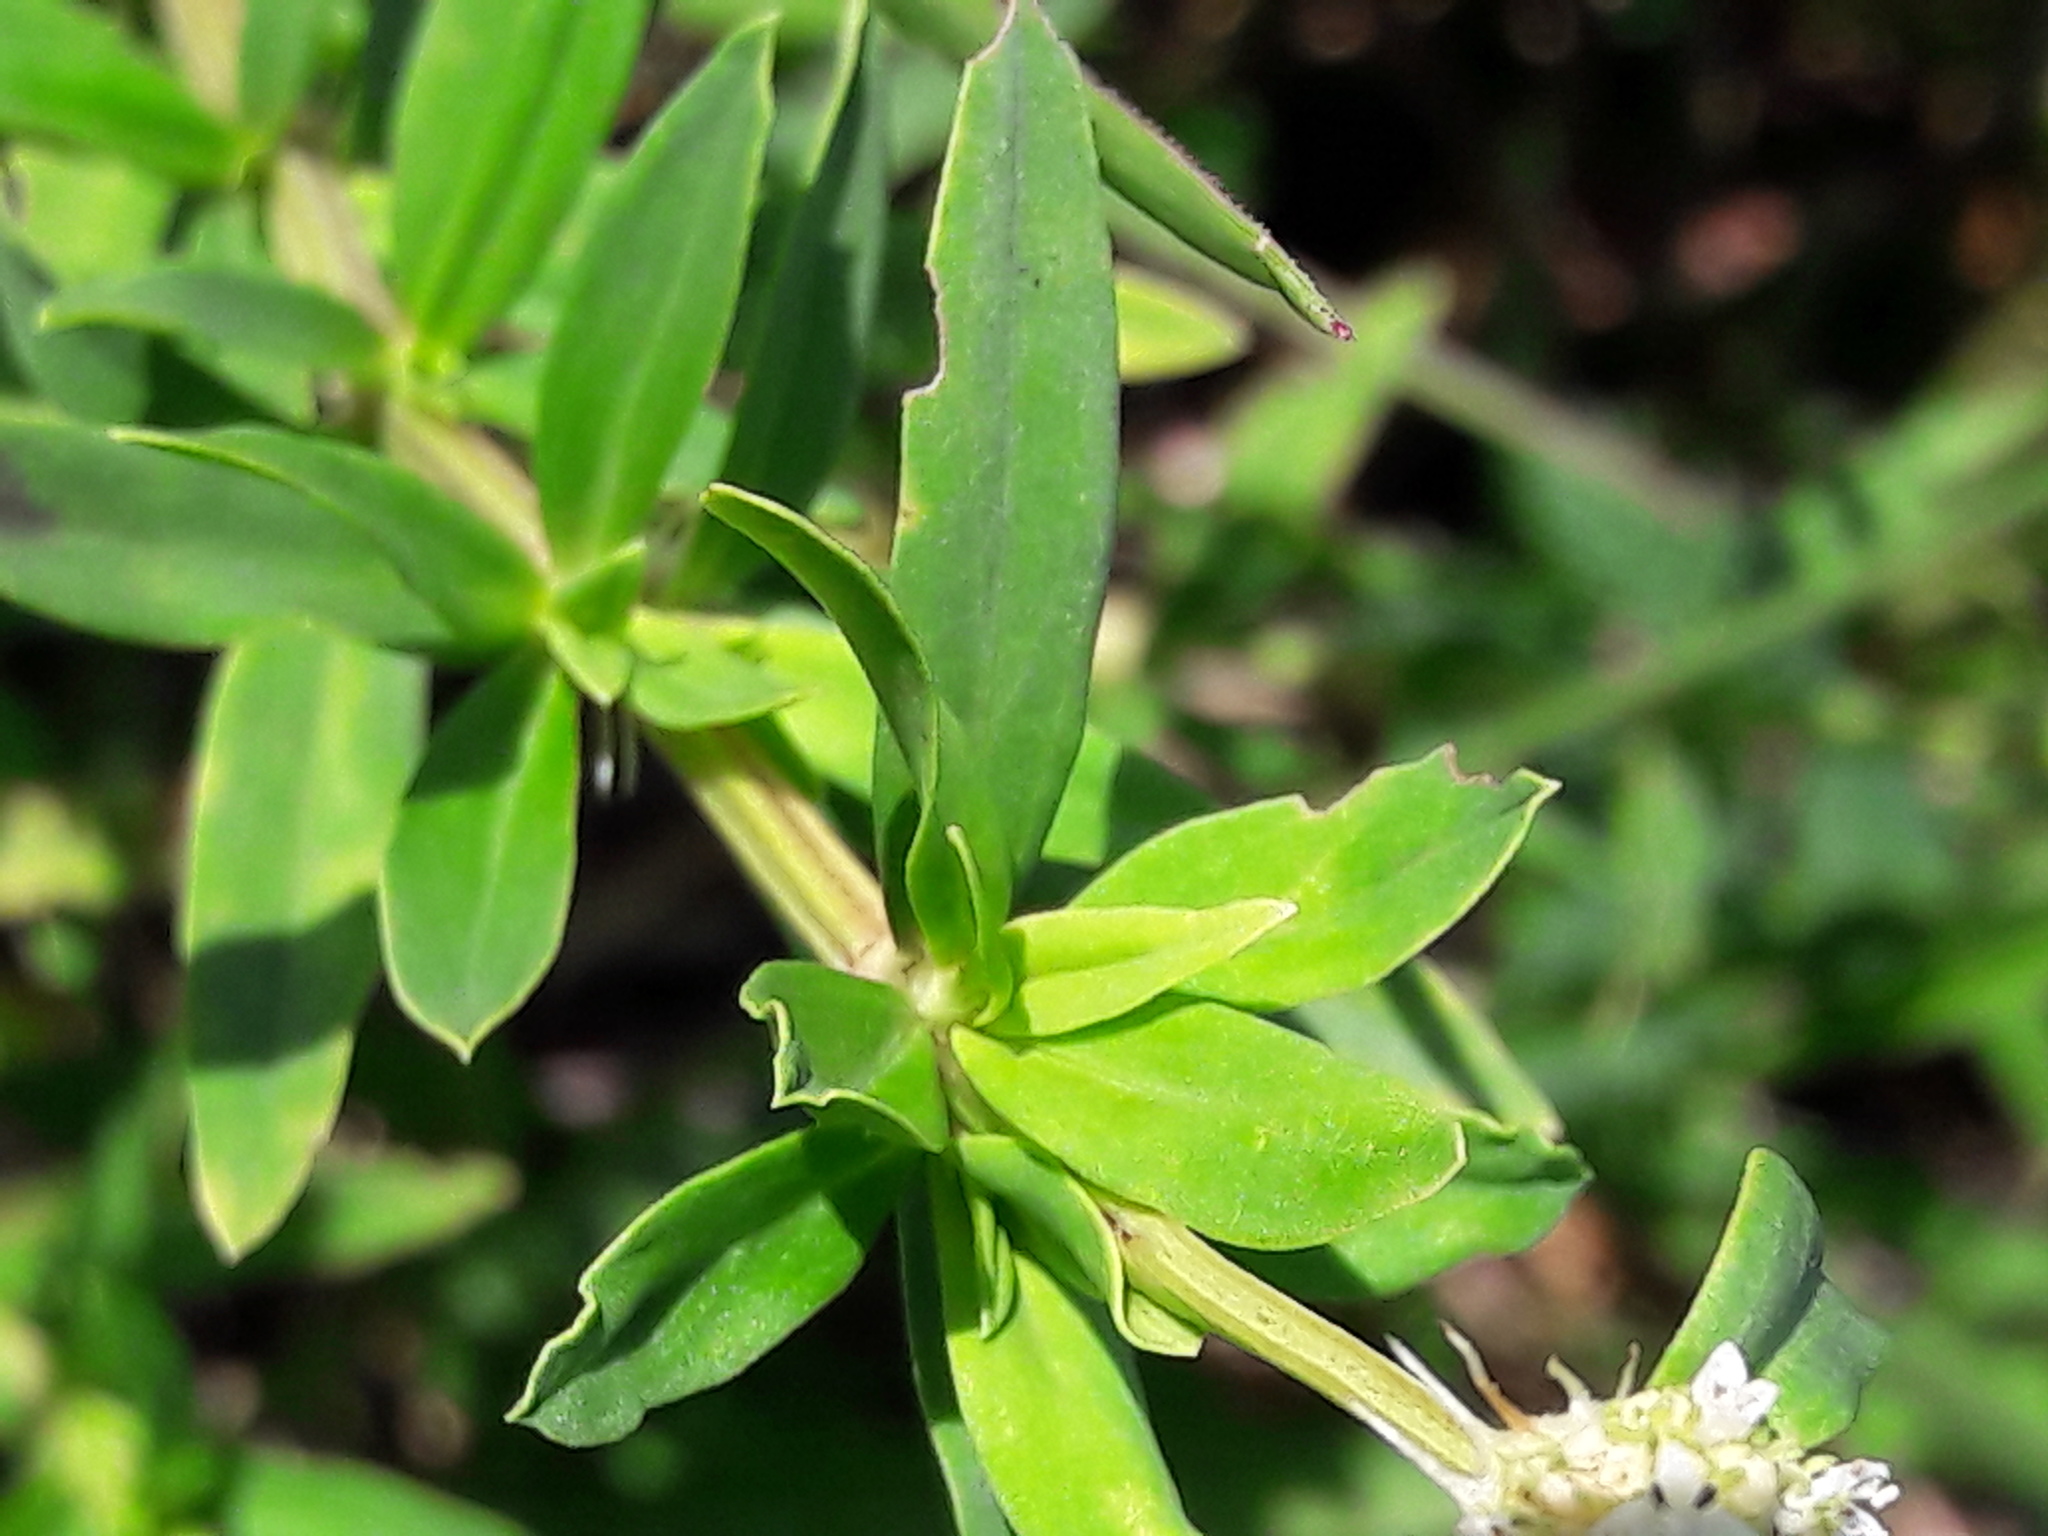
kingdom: Plantae
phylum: Tracheophyta
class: Magnoliopsida
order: Gentianales
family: Rubiaceae
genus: Spermacoce
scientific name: Spermacoce verticillata
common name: Shrubby false buttonweed
